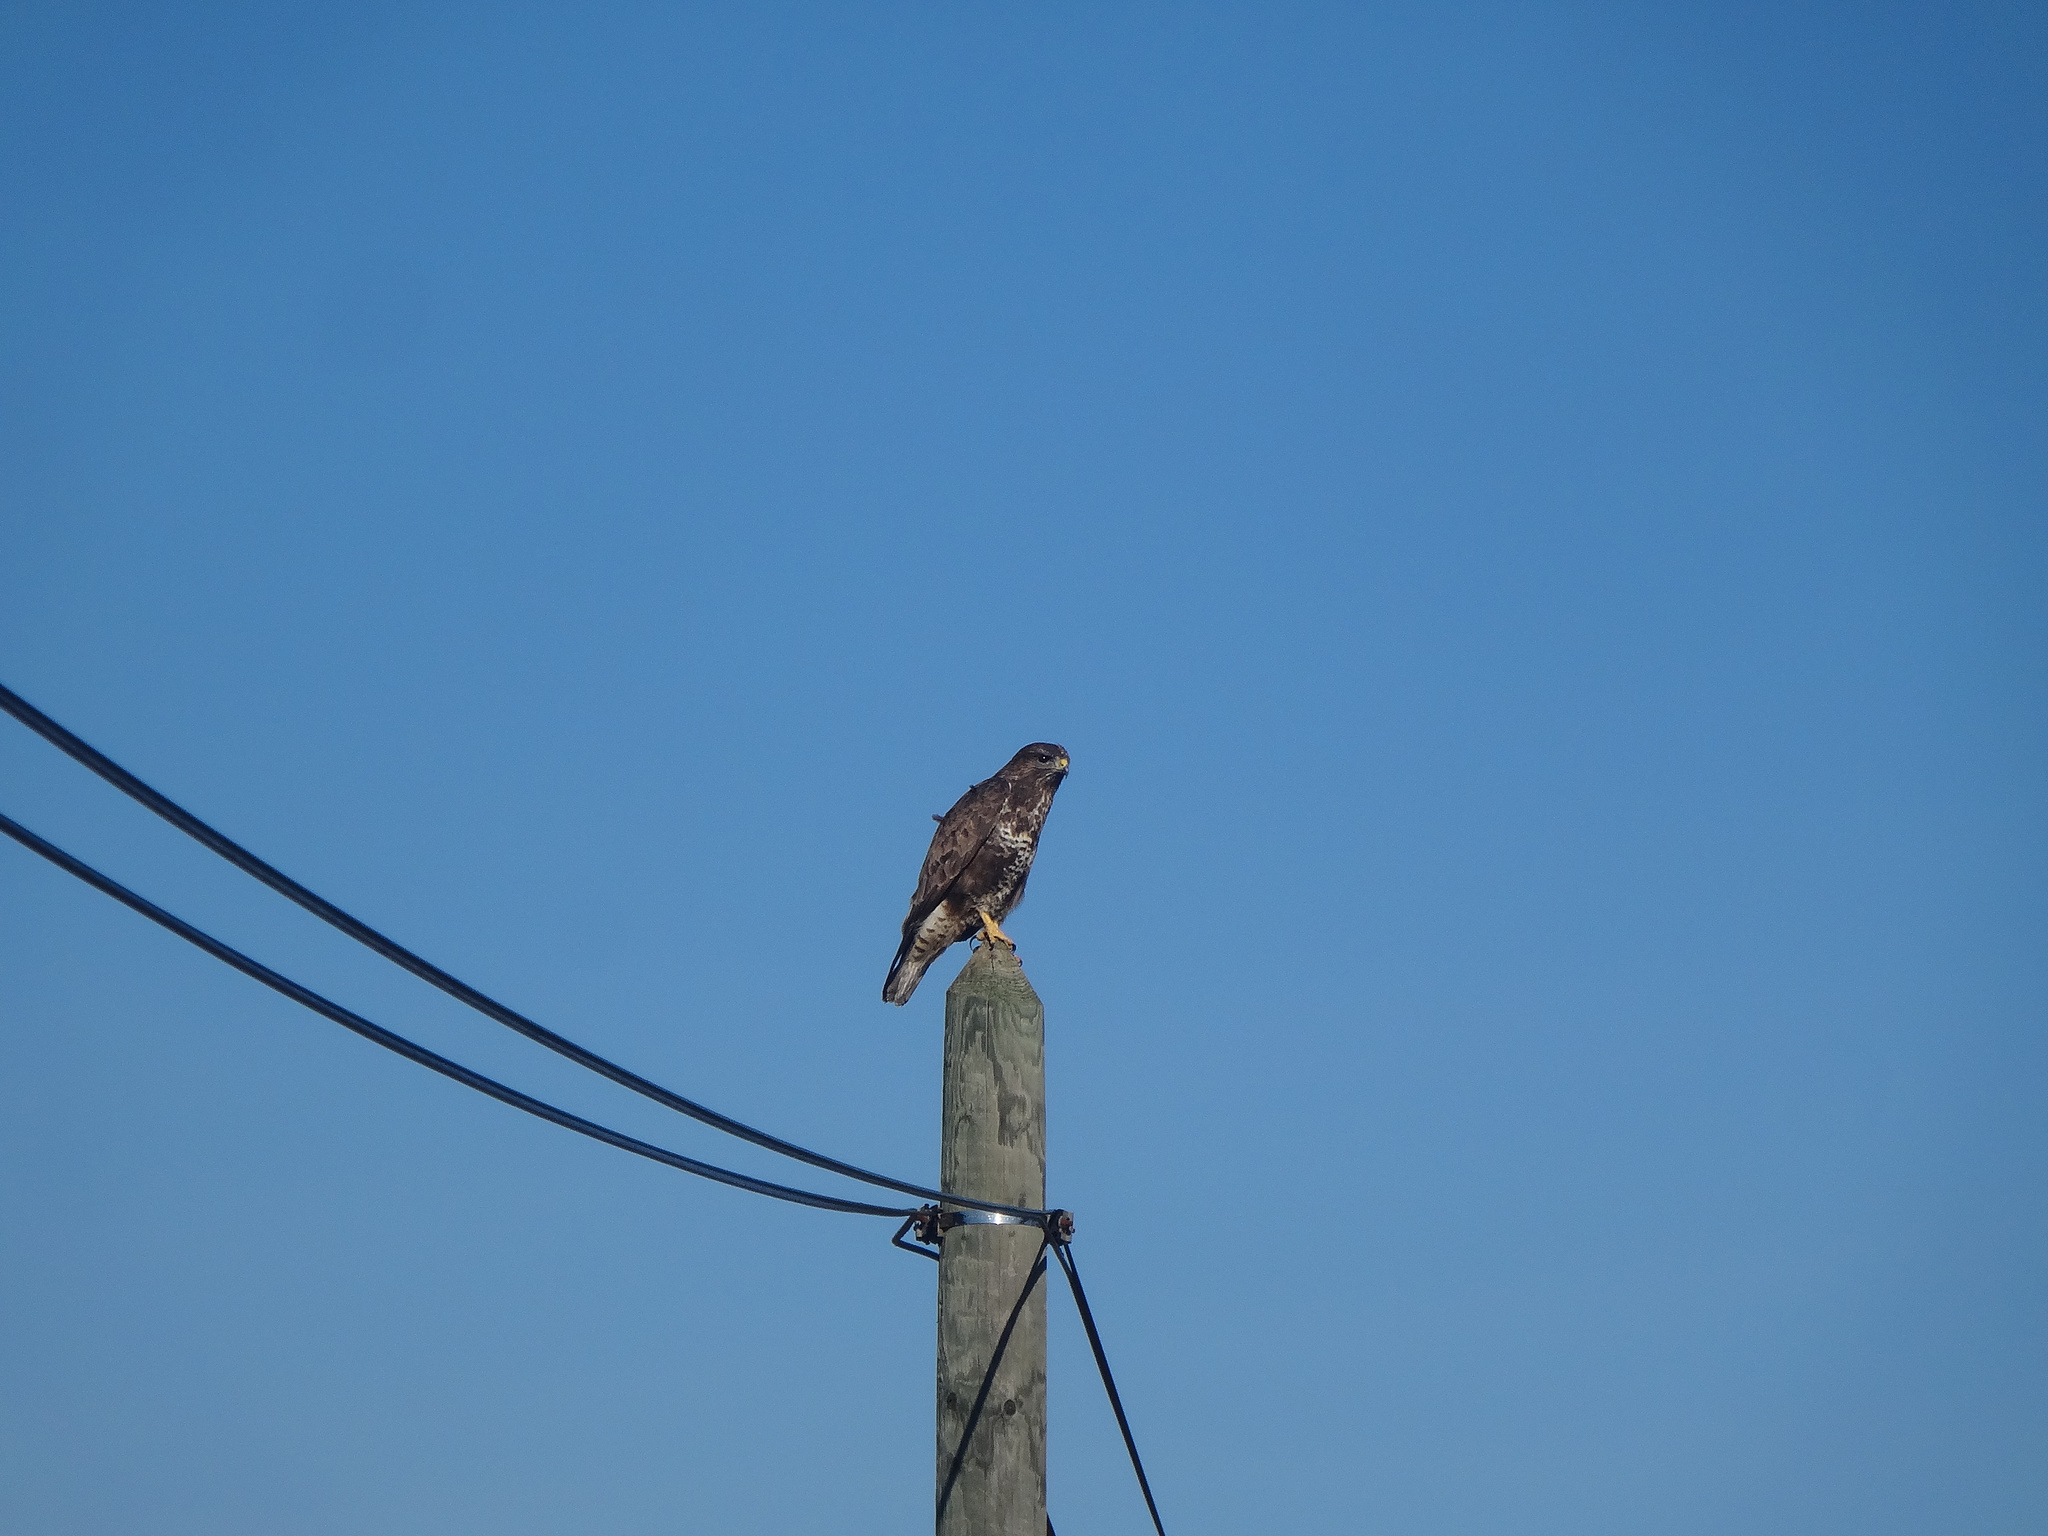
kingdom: Animalia
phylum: Chordata
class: Aves
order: Accipitriformes
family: Accipitridae
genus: Buteo
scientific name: Buteo buteo
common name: Common buzzard
